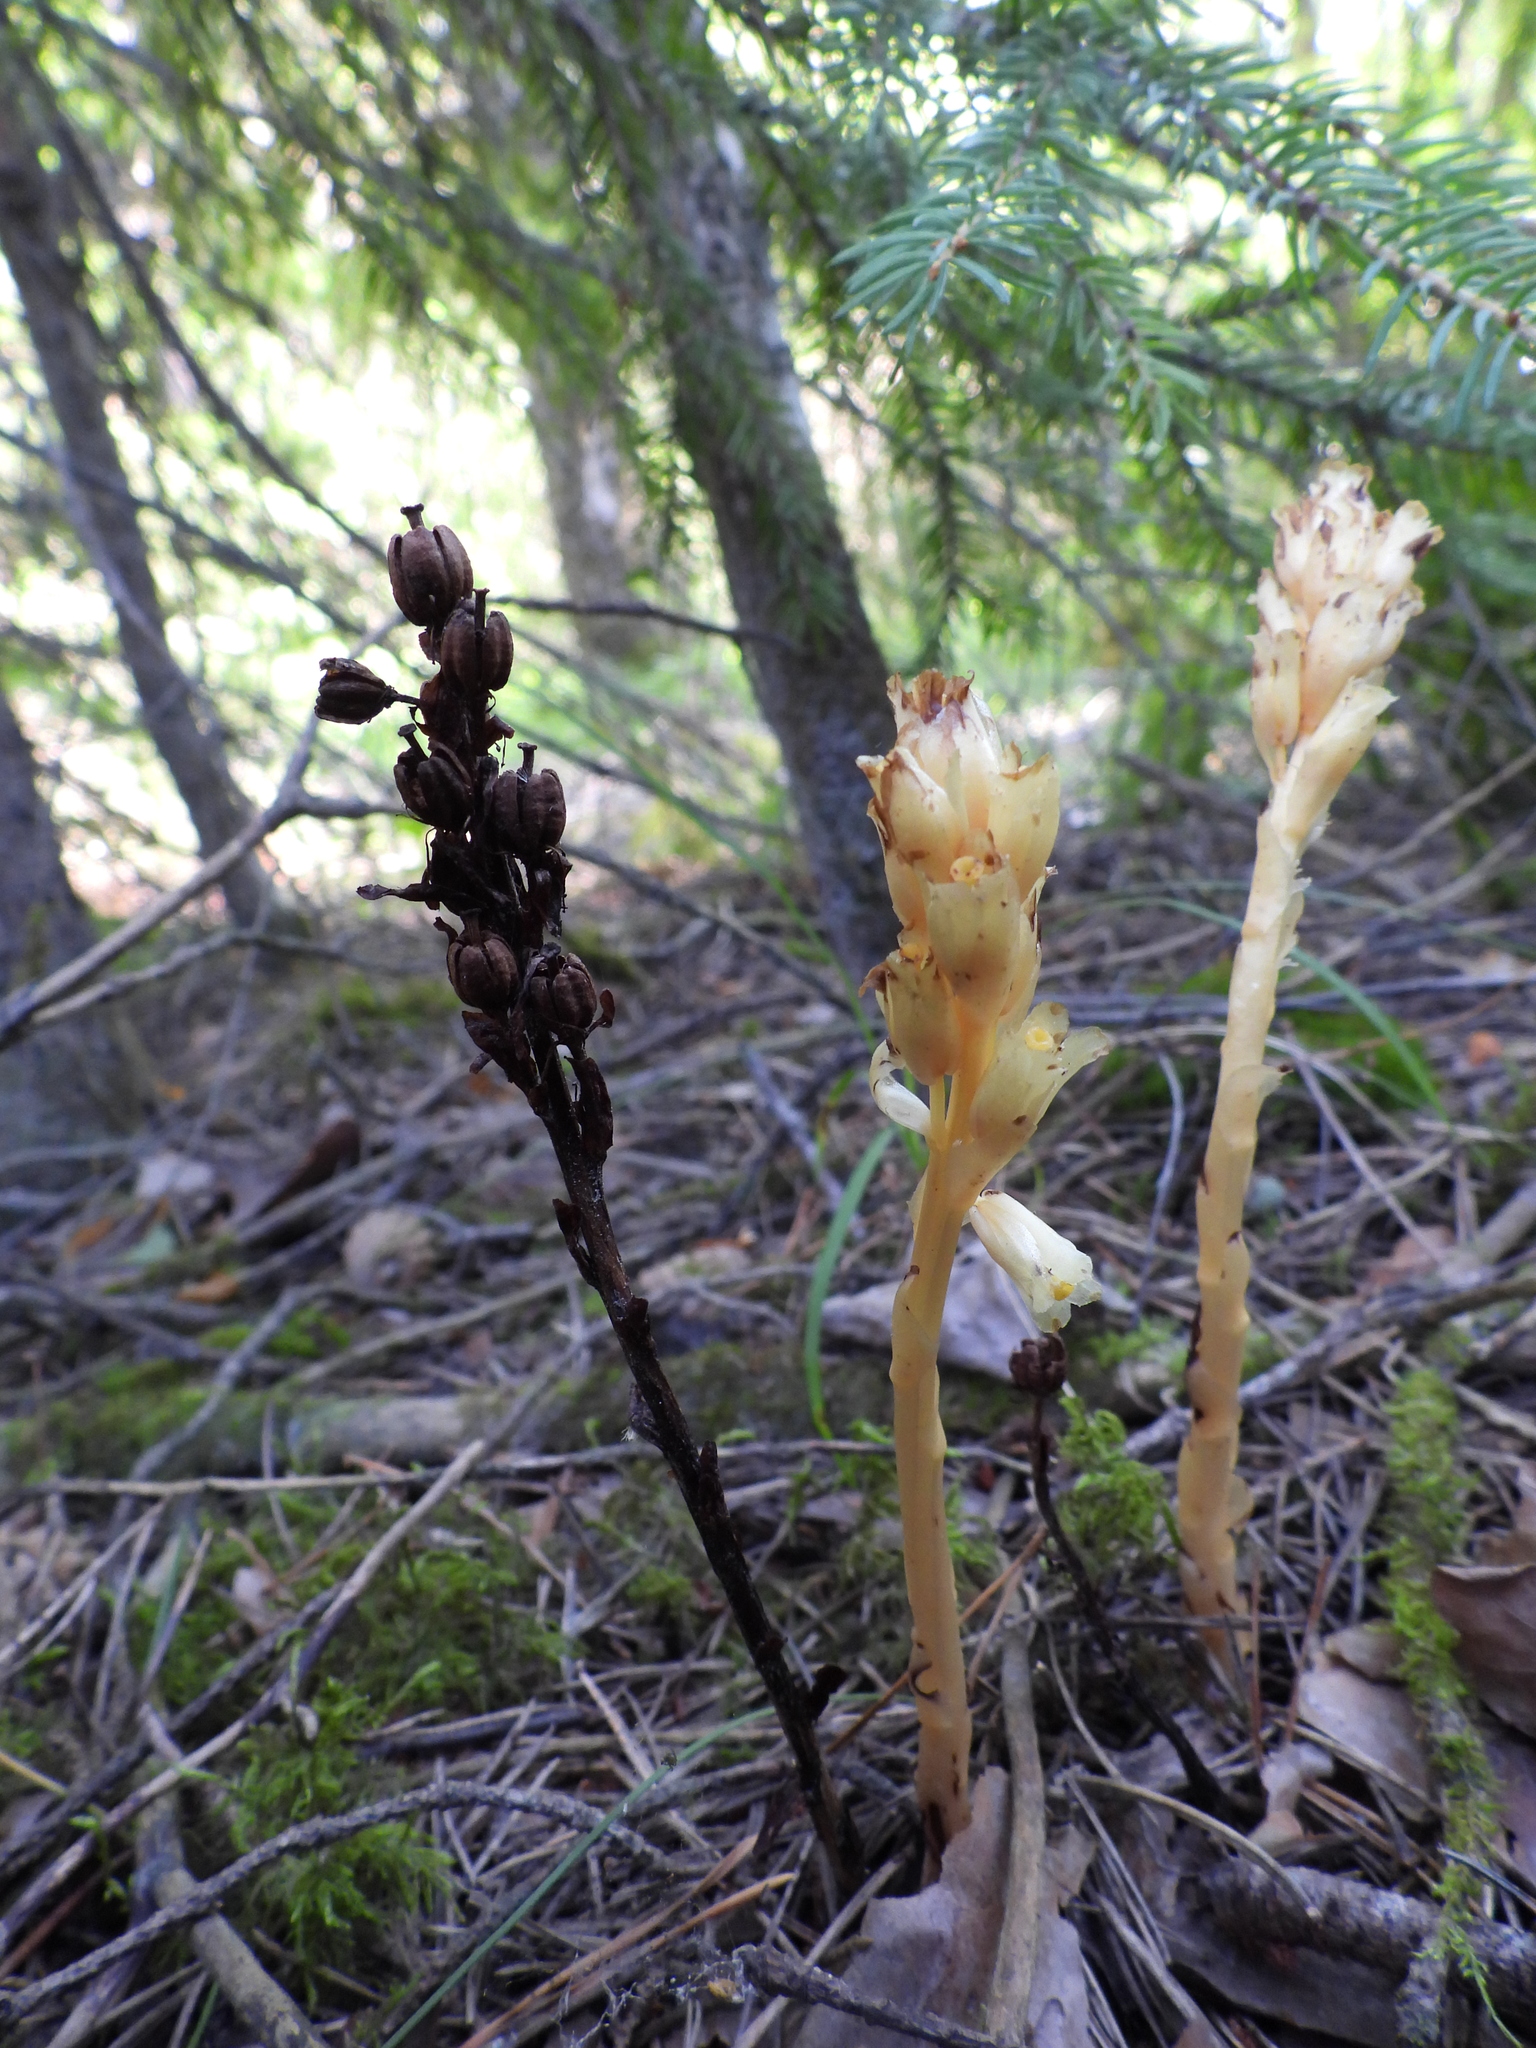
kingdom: Plantae
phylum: Tracheophyta
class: Magnoliopsida
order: Ericales
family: Ericaceae
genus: Hypopitys
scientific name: Hypopitys monotropa
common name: Yellow bird's-nest
